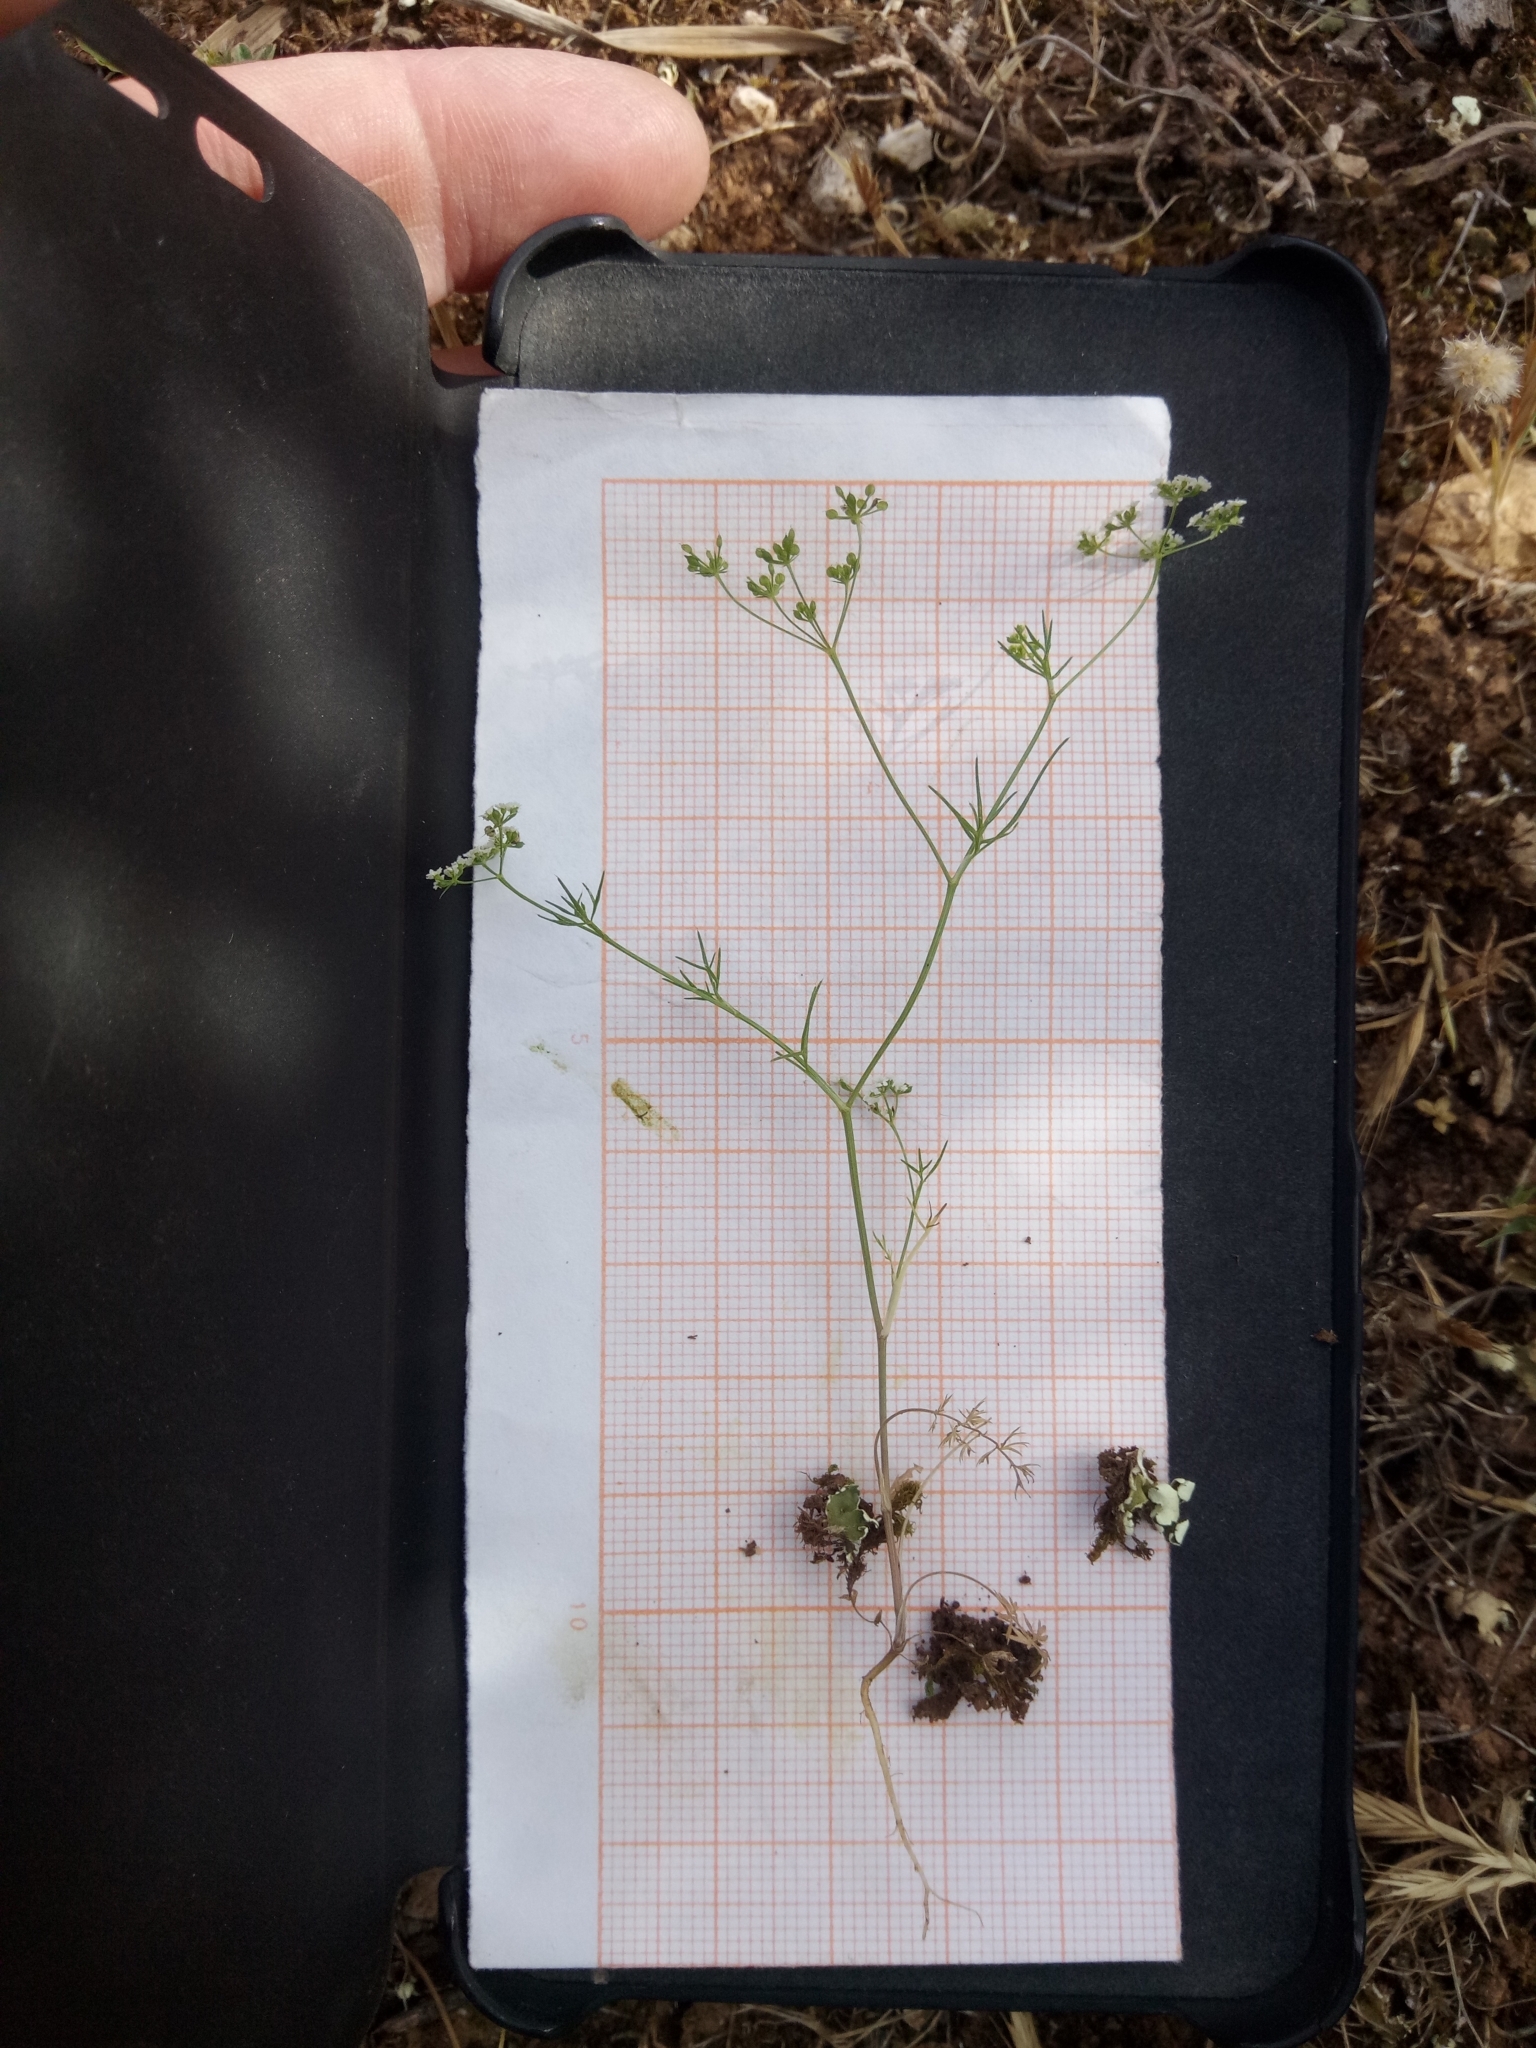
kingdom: Plantae
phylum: Tracheophyta
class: Magnoliopsida
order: Apiales
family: Apiaceae
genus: Ammoides
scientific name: Ammoides pusilla
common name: Cerfolium
